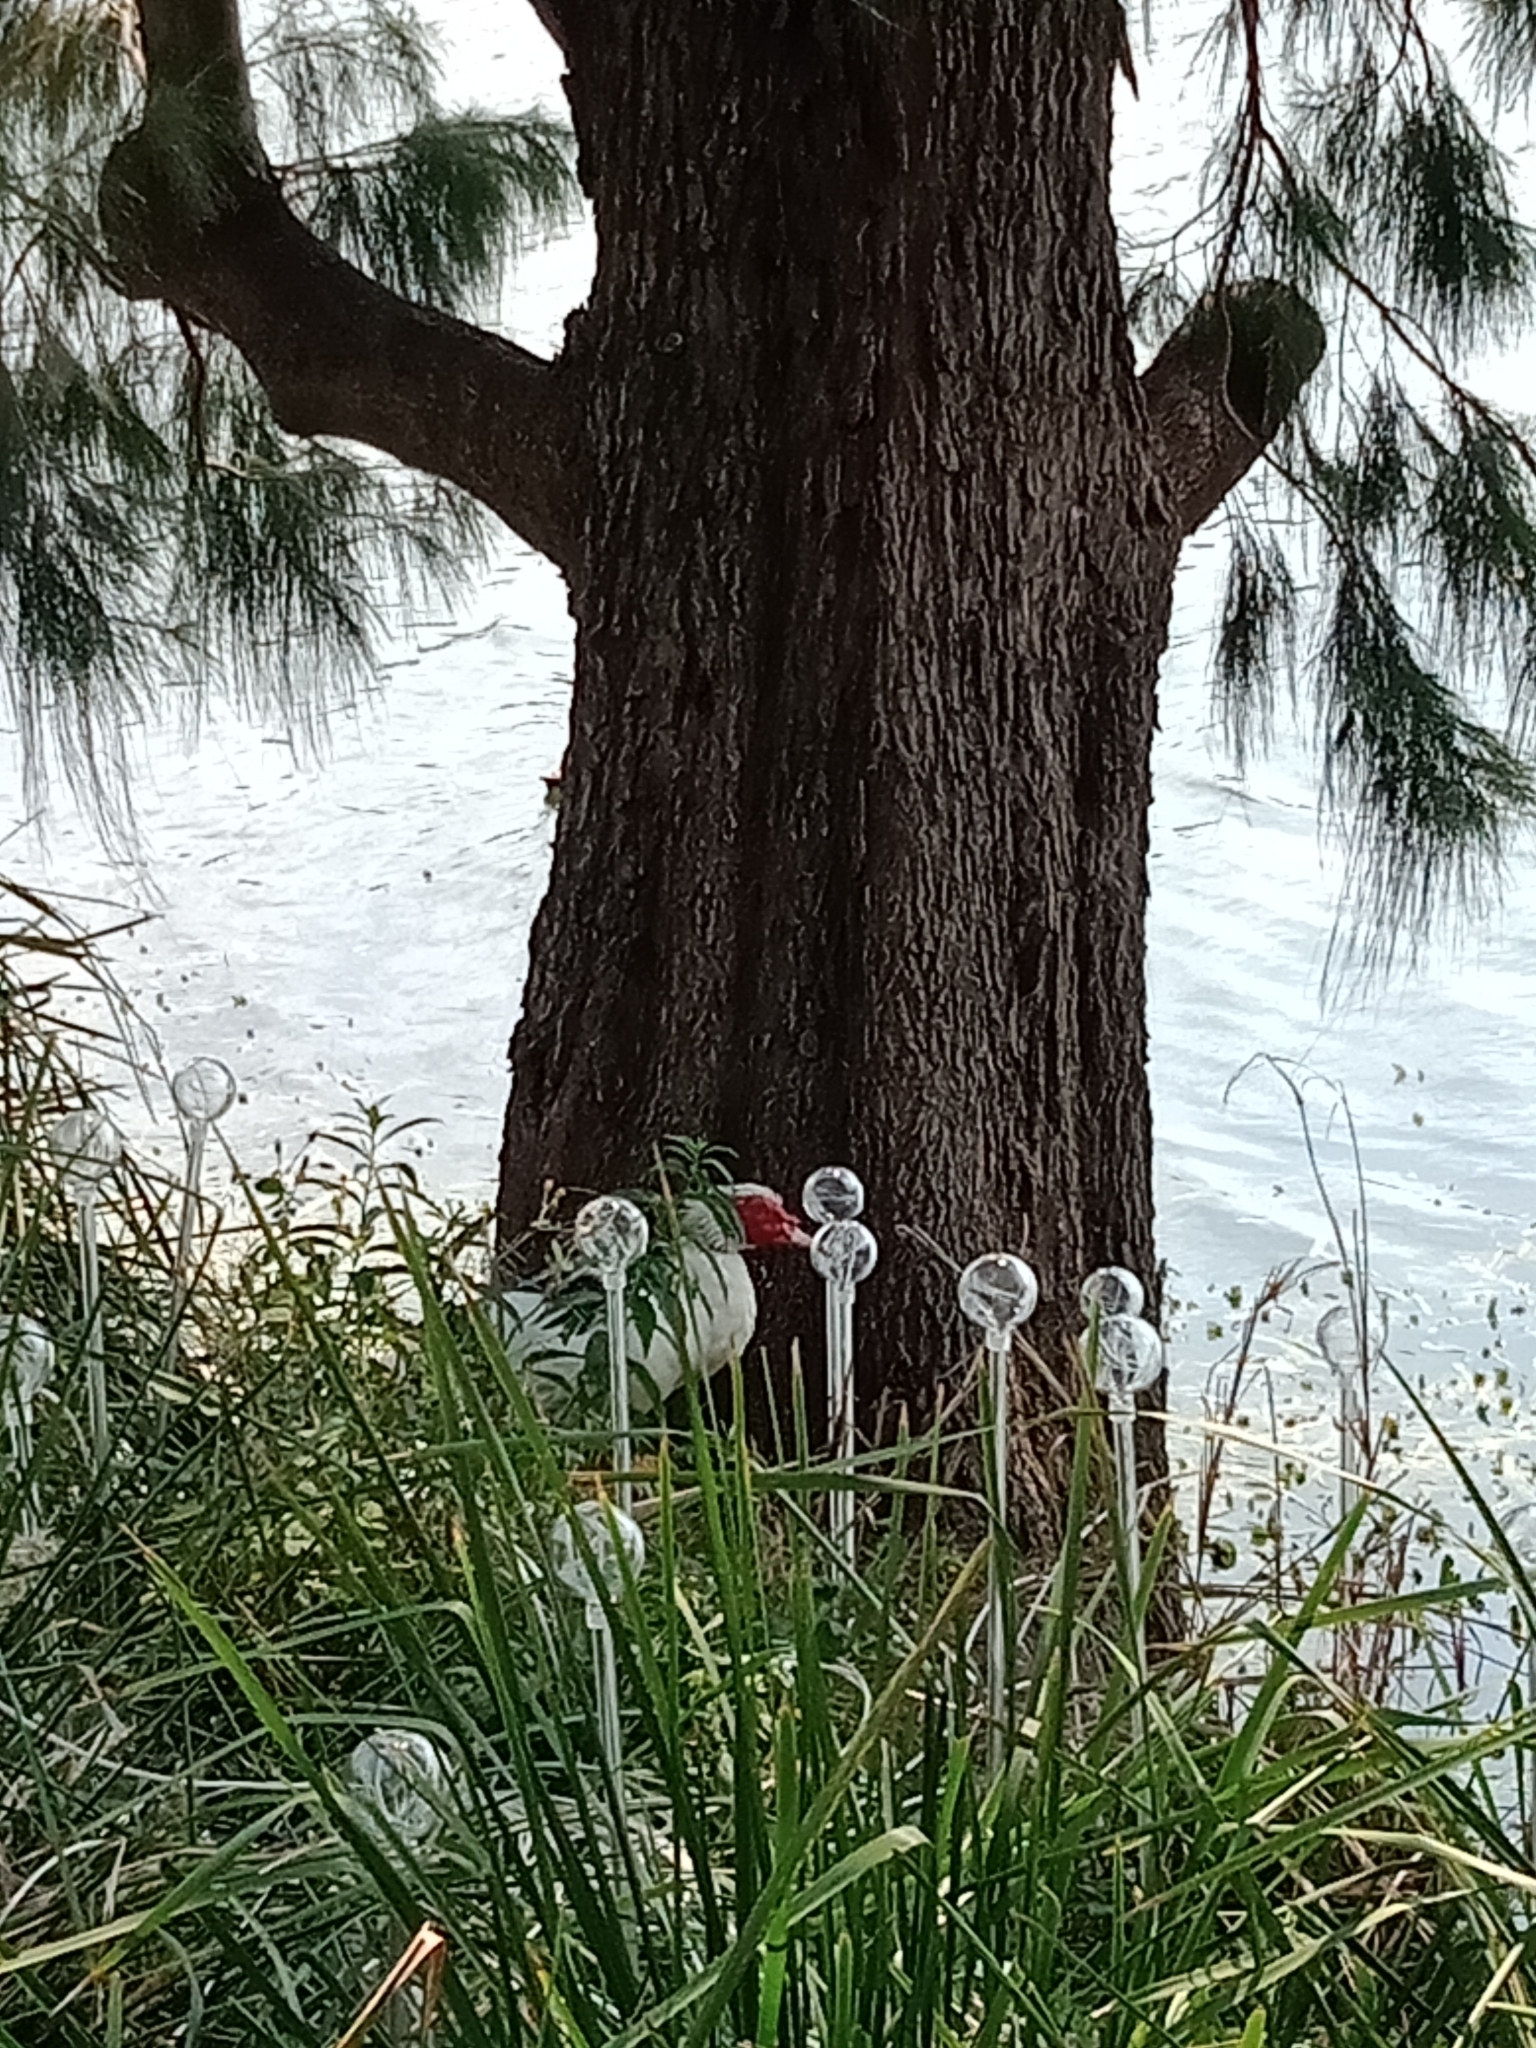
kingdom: Animalia
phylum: Chordata
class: Aves
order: Anseriformes
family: Anatidae
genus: Cairina
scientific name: Cairina moschata
